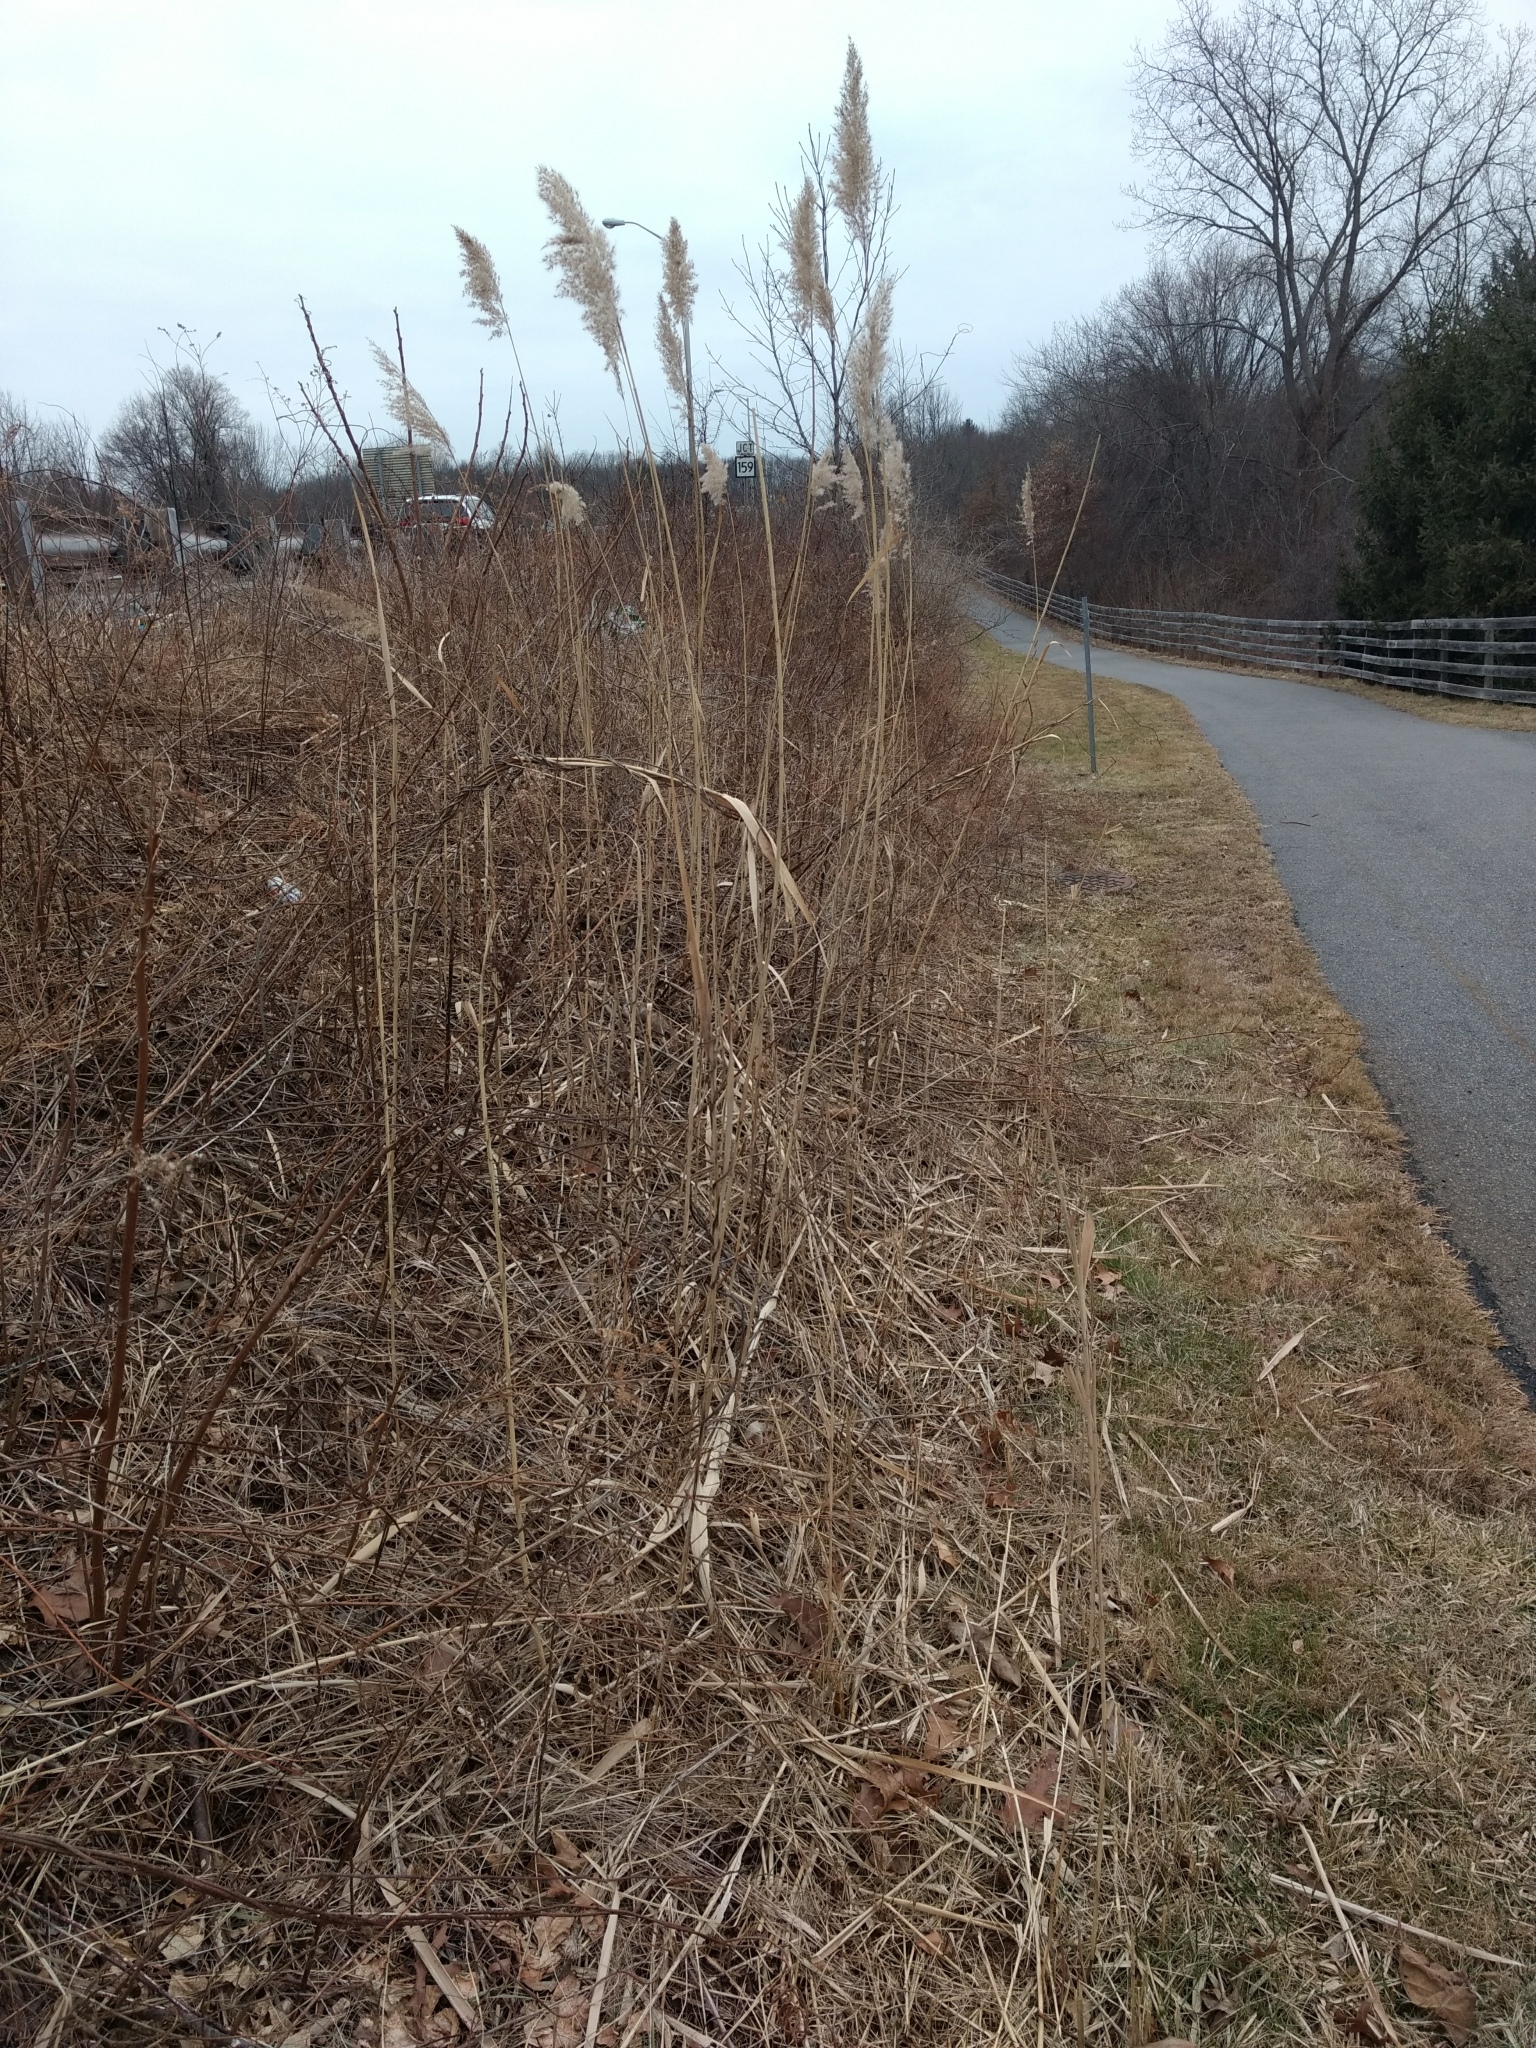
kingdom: Plantae
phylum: Tracheophyta
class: Liliopsida
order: Poales
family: Poaceae
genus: Phragmites
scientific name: Phragmites australis
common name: Common reed
